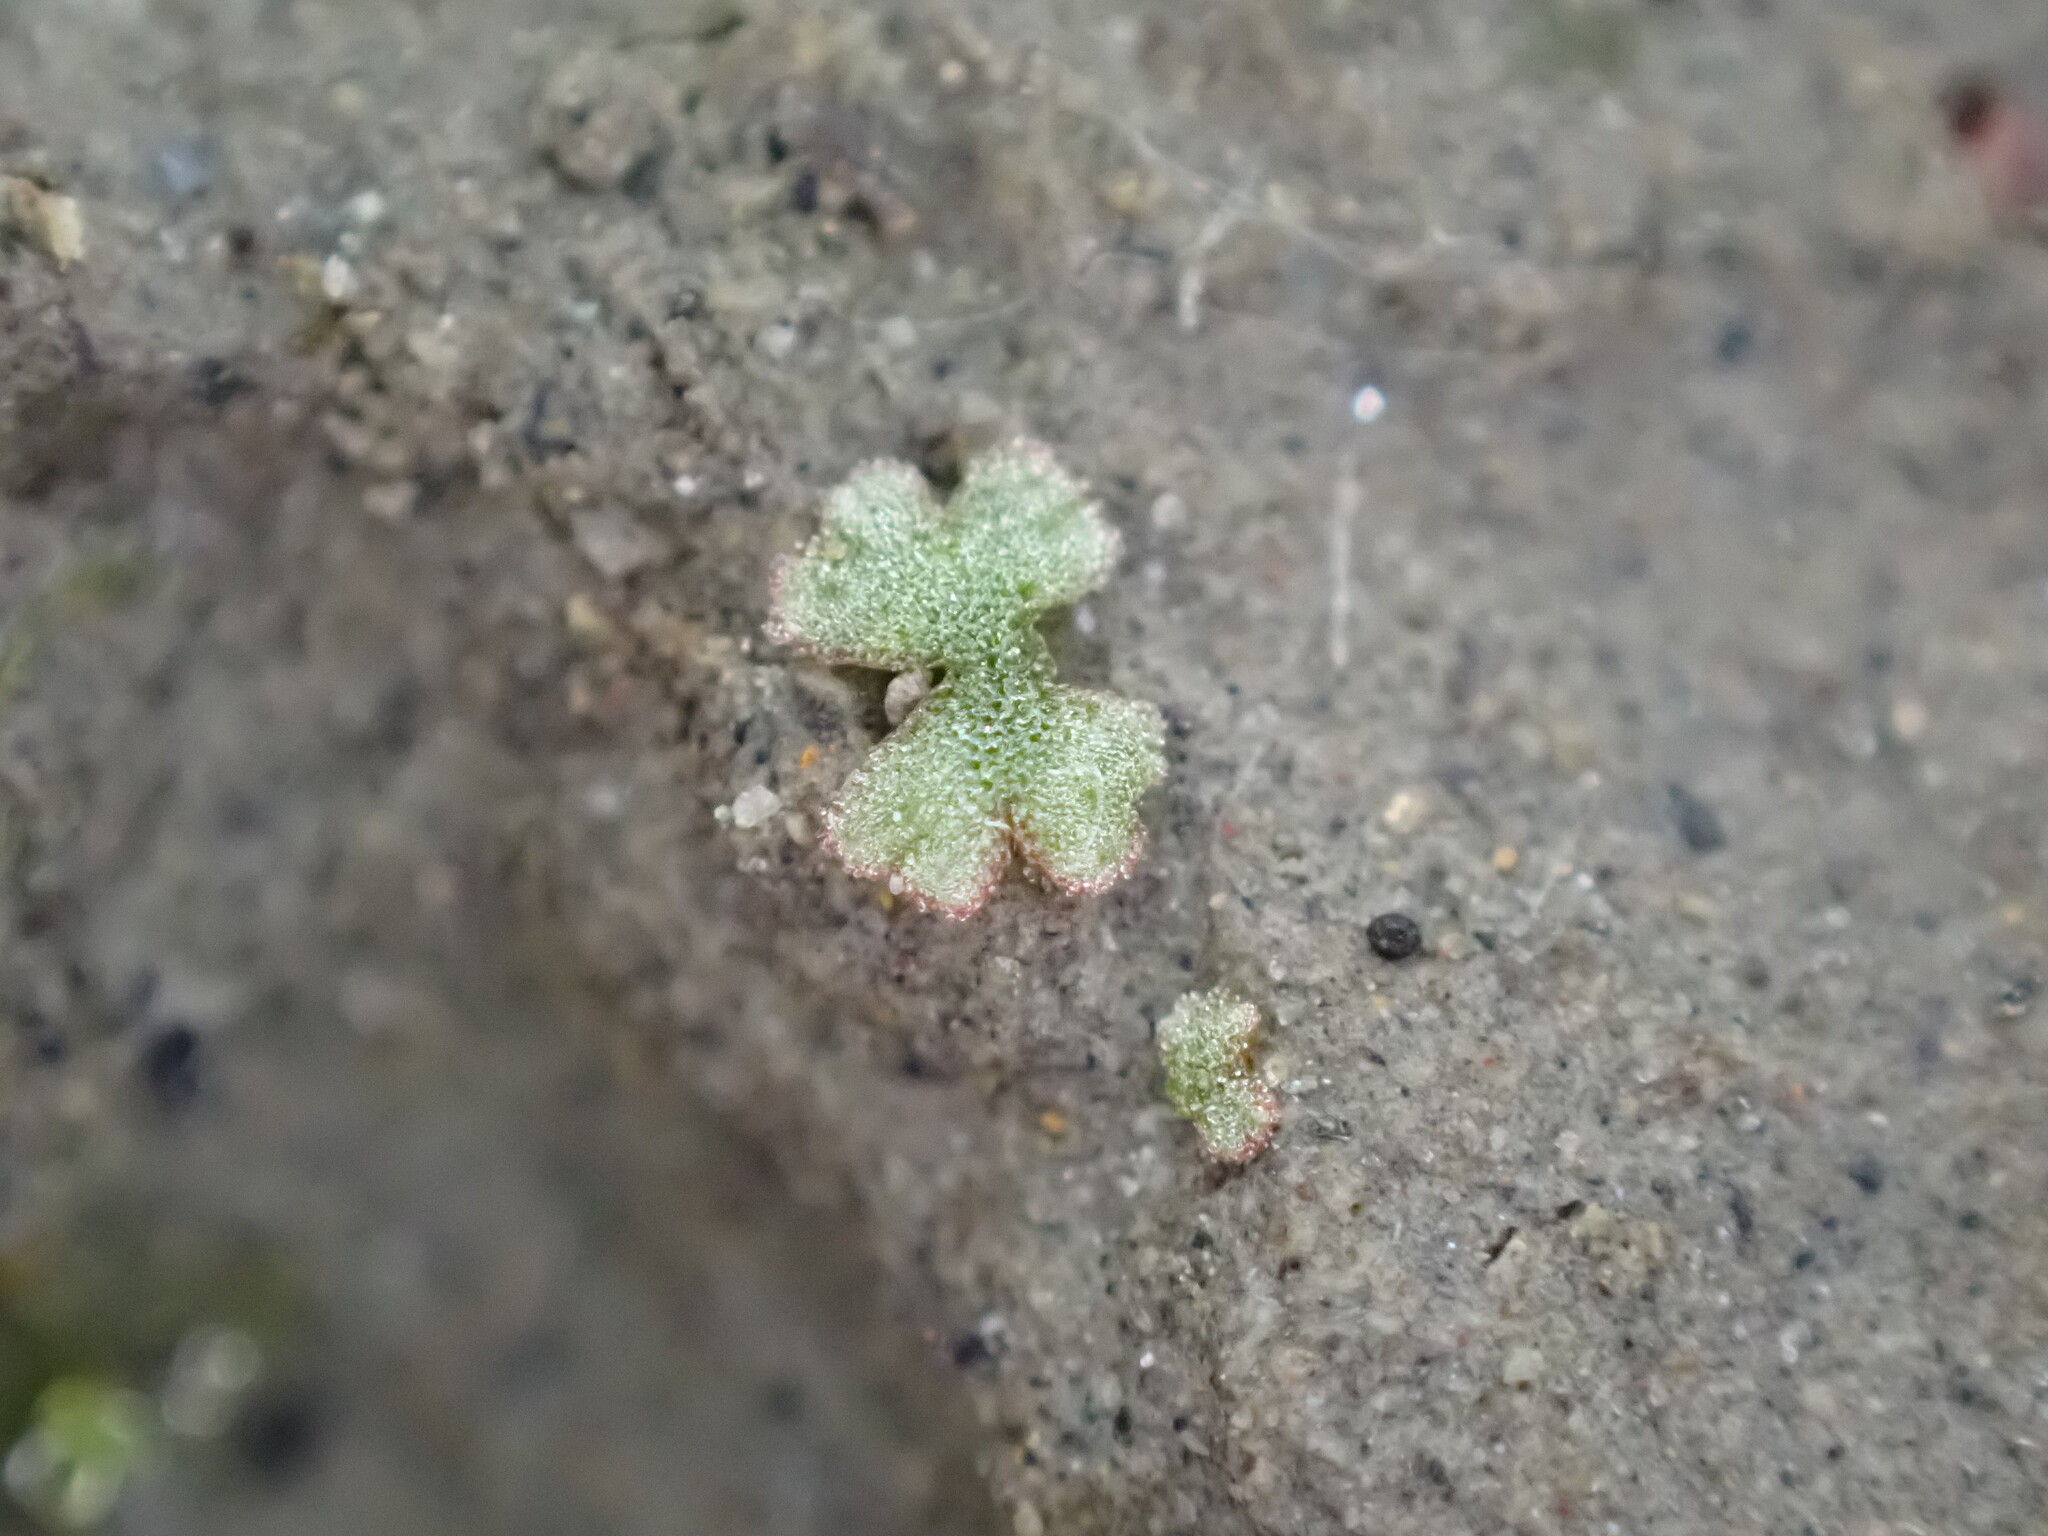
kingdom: Plantae
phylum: Marchantiophyta
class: Marchantiopsida
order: Marchantiales
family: Ricciaceae
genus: Riccia
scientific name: Riccia frostii
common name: Frost s crystalwort
